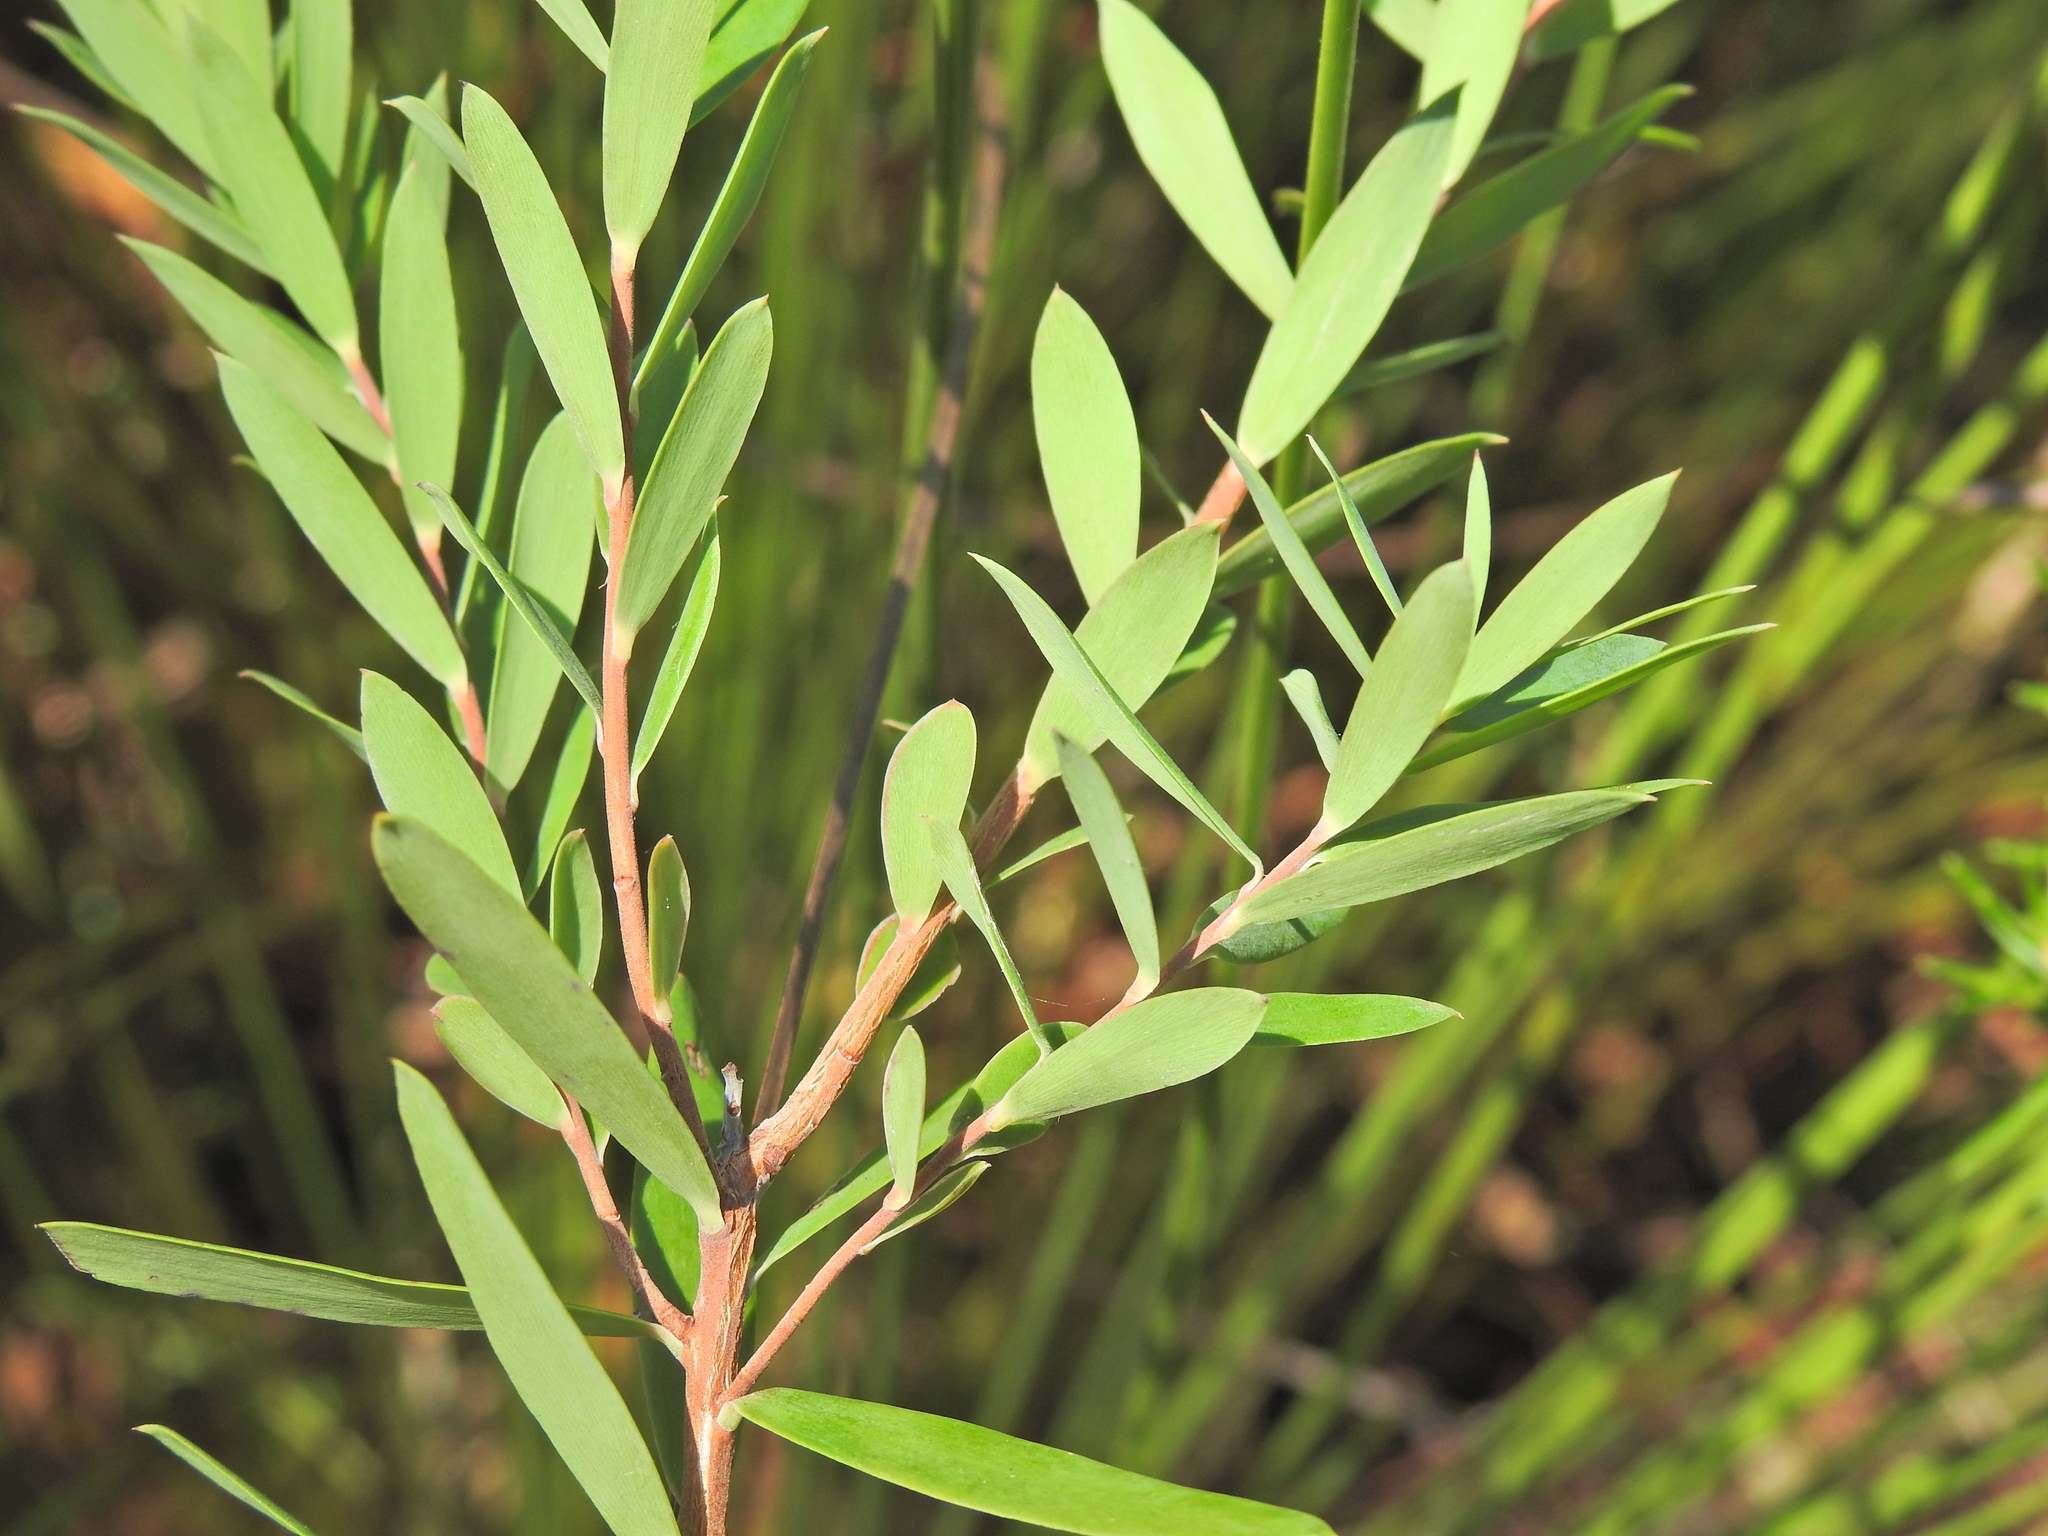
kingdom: Plantae
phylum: Tracheophyta
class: Magnoliopsida
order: Ericales
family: Ericaceae
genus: Styphelia
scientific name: Styphelia viridis
